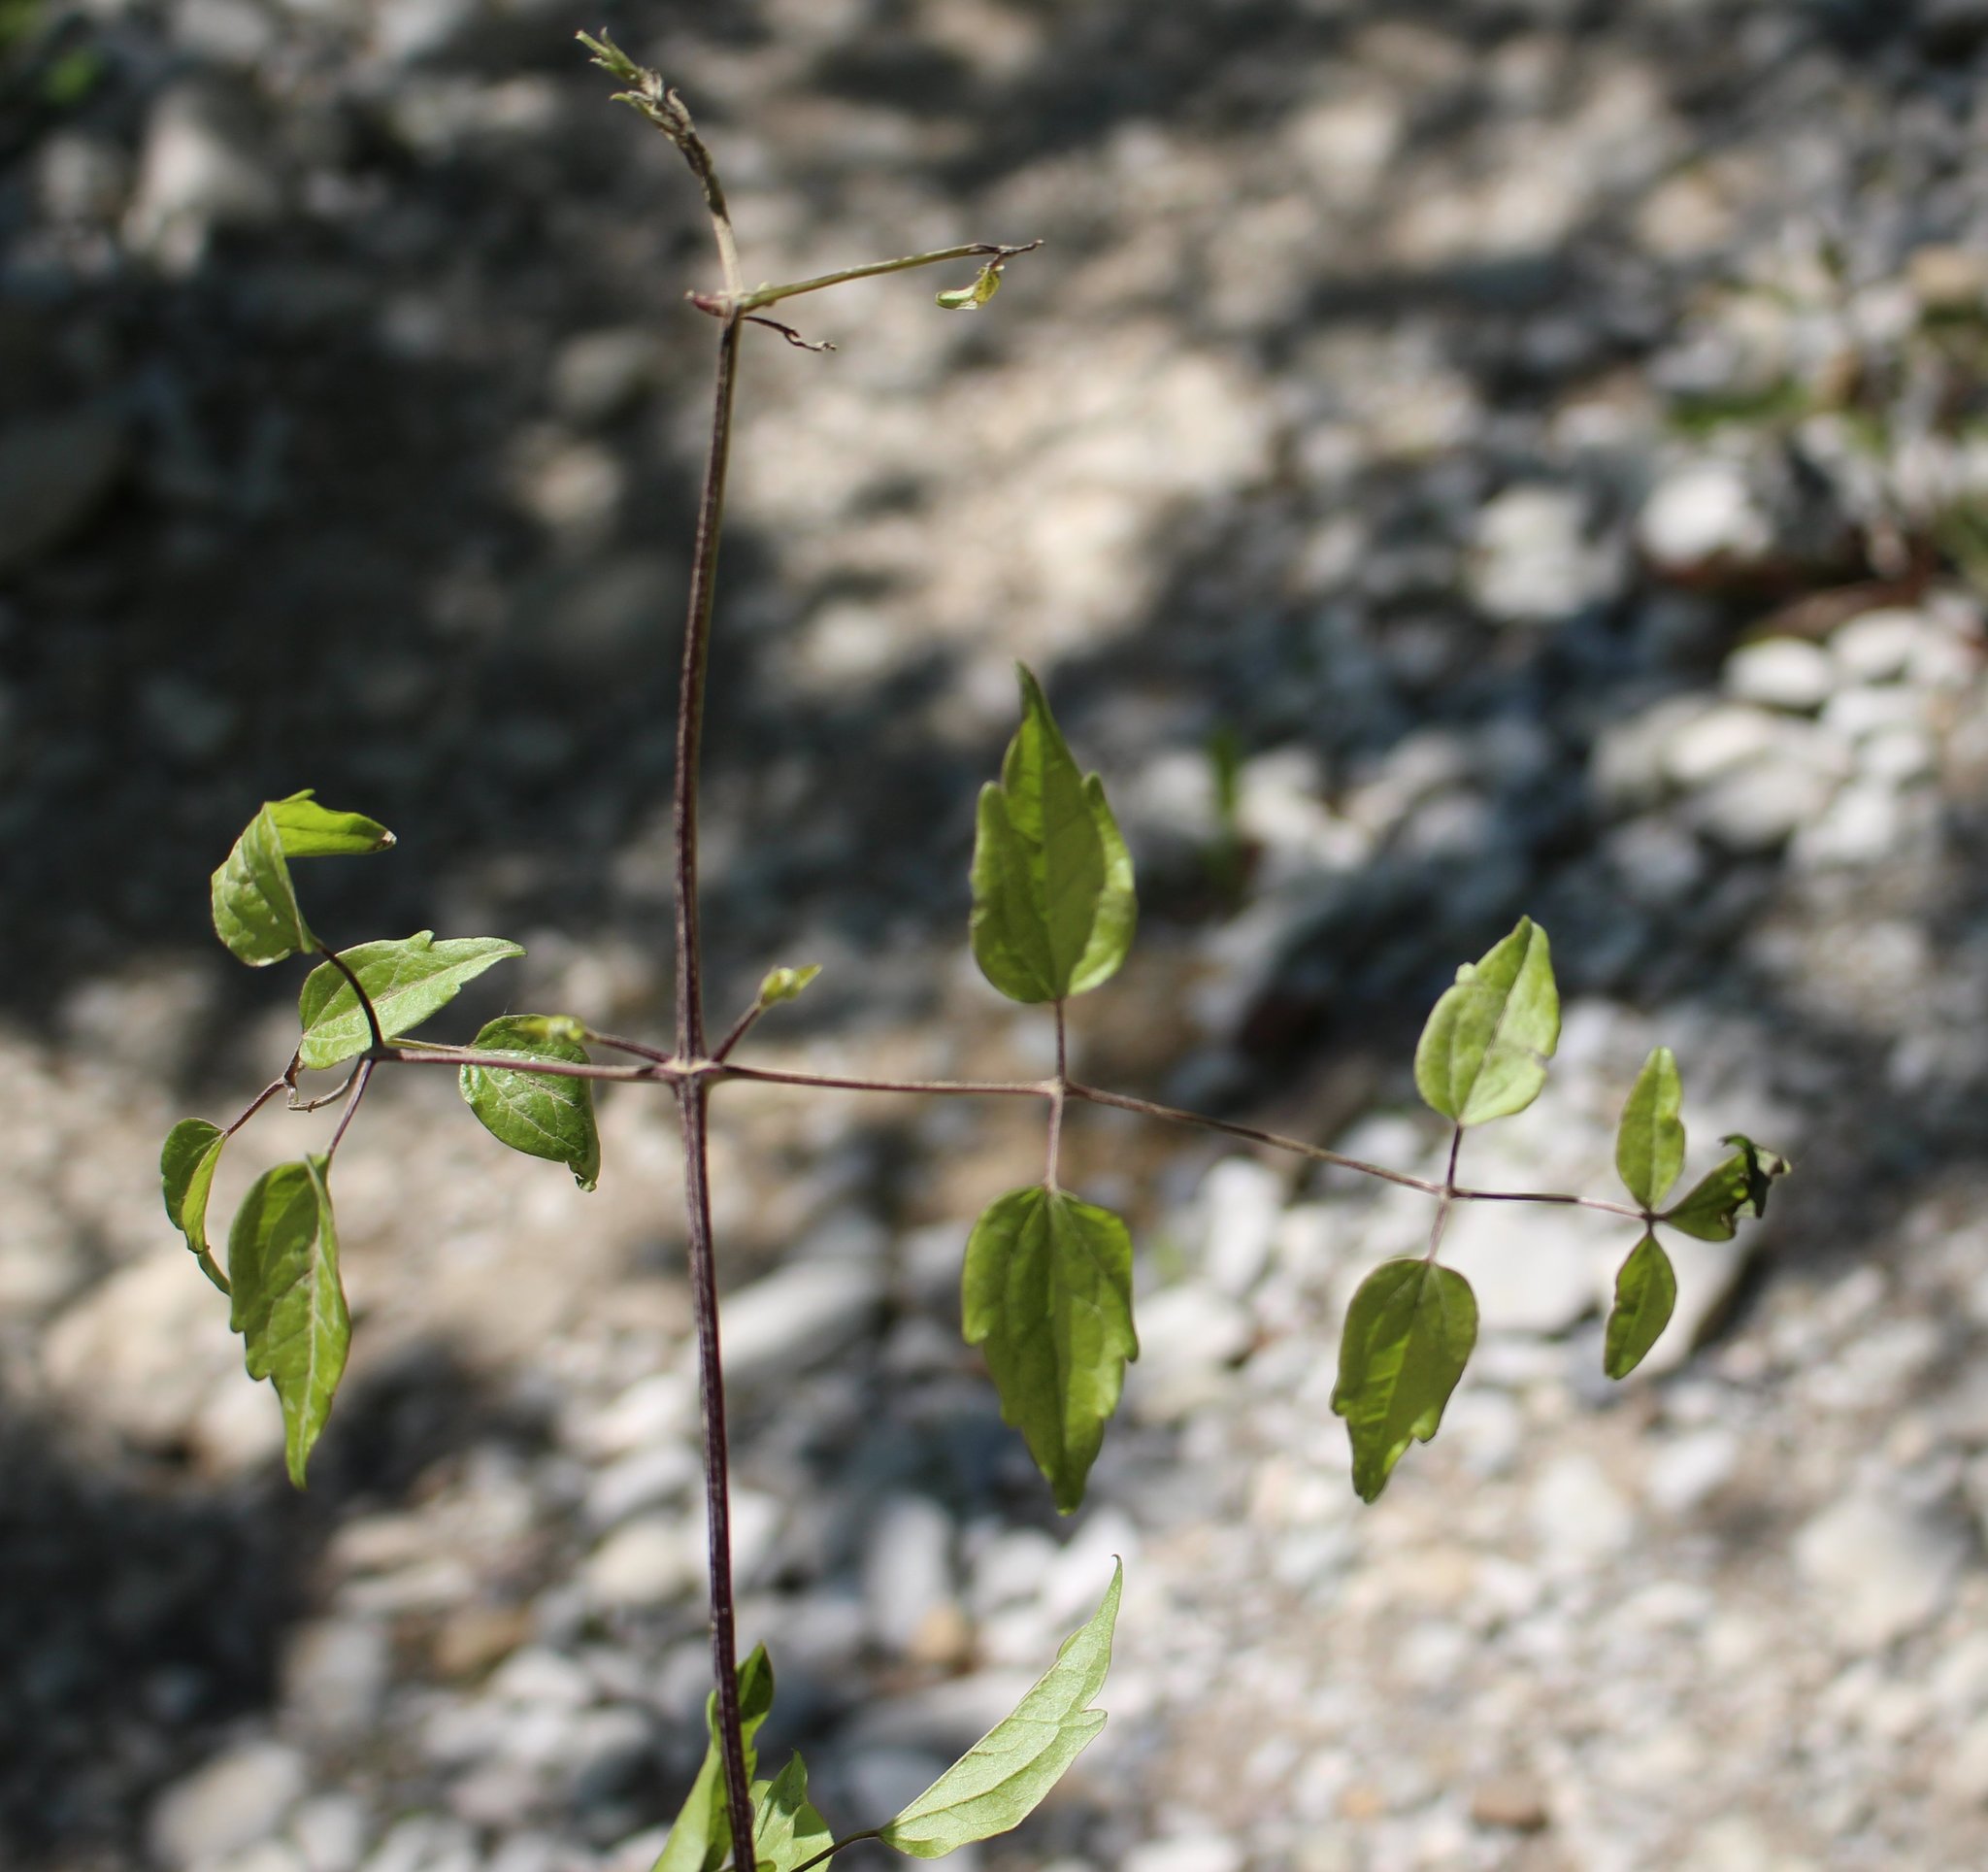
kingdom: Plantae
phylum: Tracheophyta
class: Magnoliopsida
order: Ranunculales
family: Ranunculaceae
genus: Clematis
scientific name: Clematis vitalba
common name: Evergreen clematis
